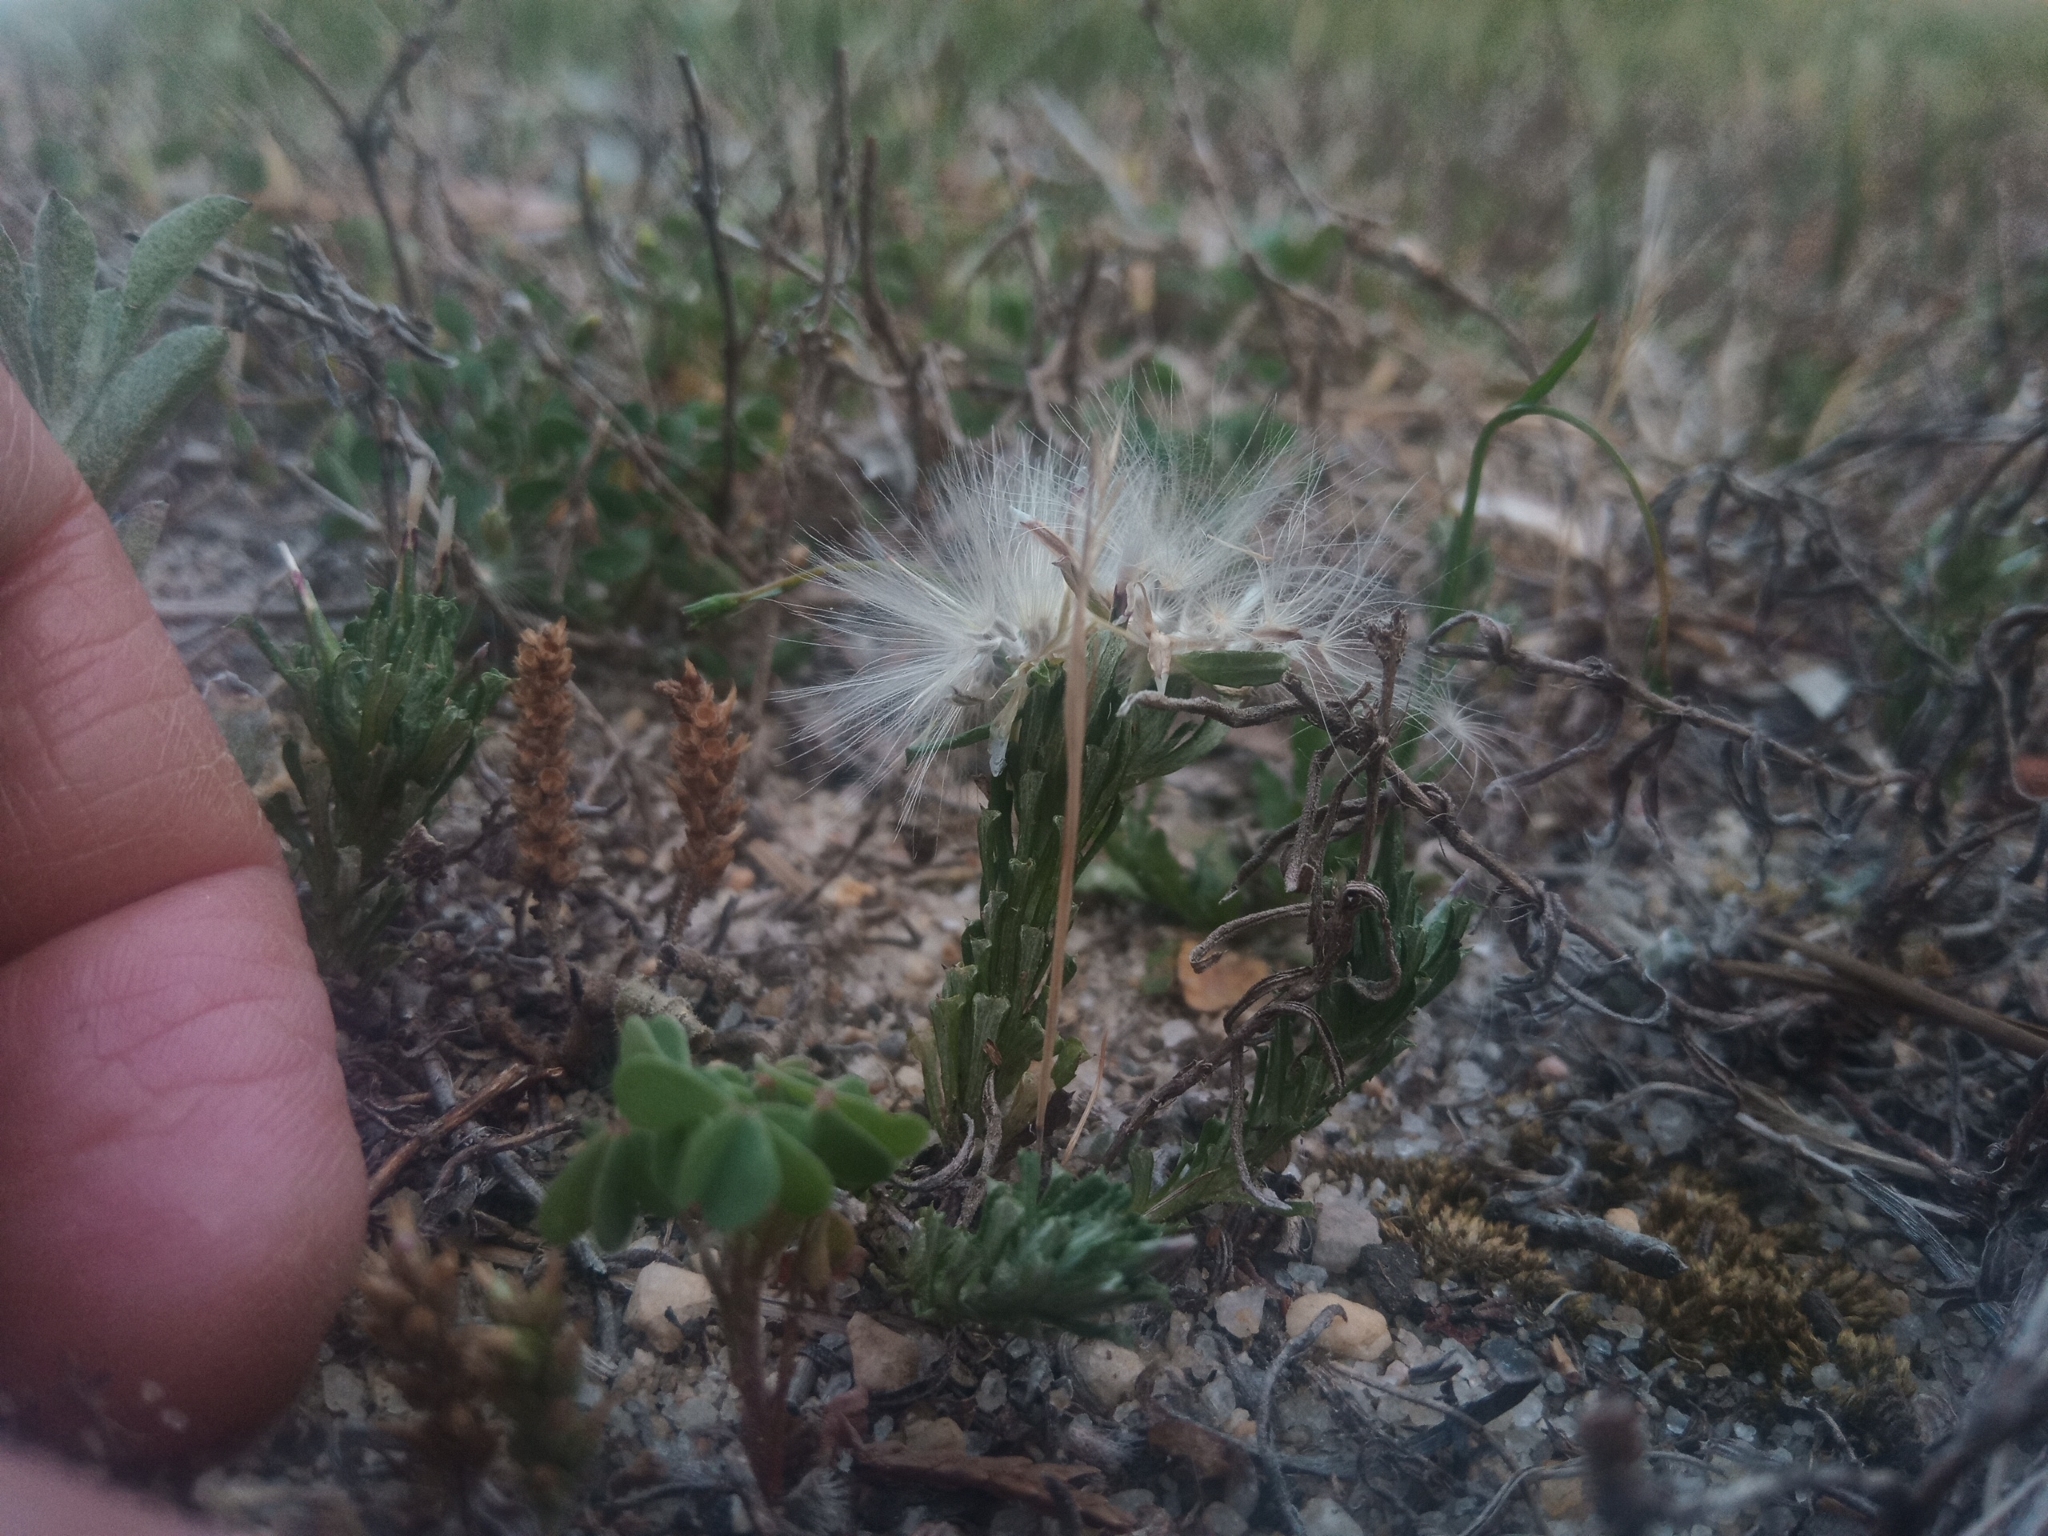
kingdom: Plantae
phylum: Tracheophyta
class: Magnoliopsida
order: Asterales
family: Asteraceae
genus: Facelis
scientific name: Facelis retusa
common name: Annual trampweed
